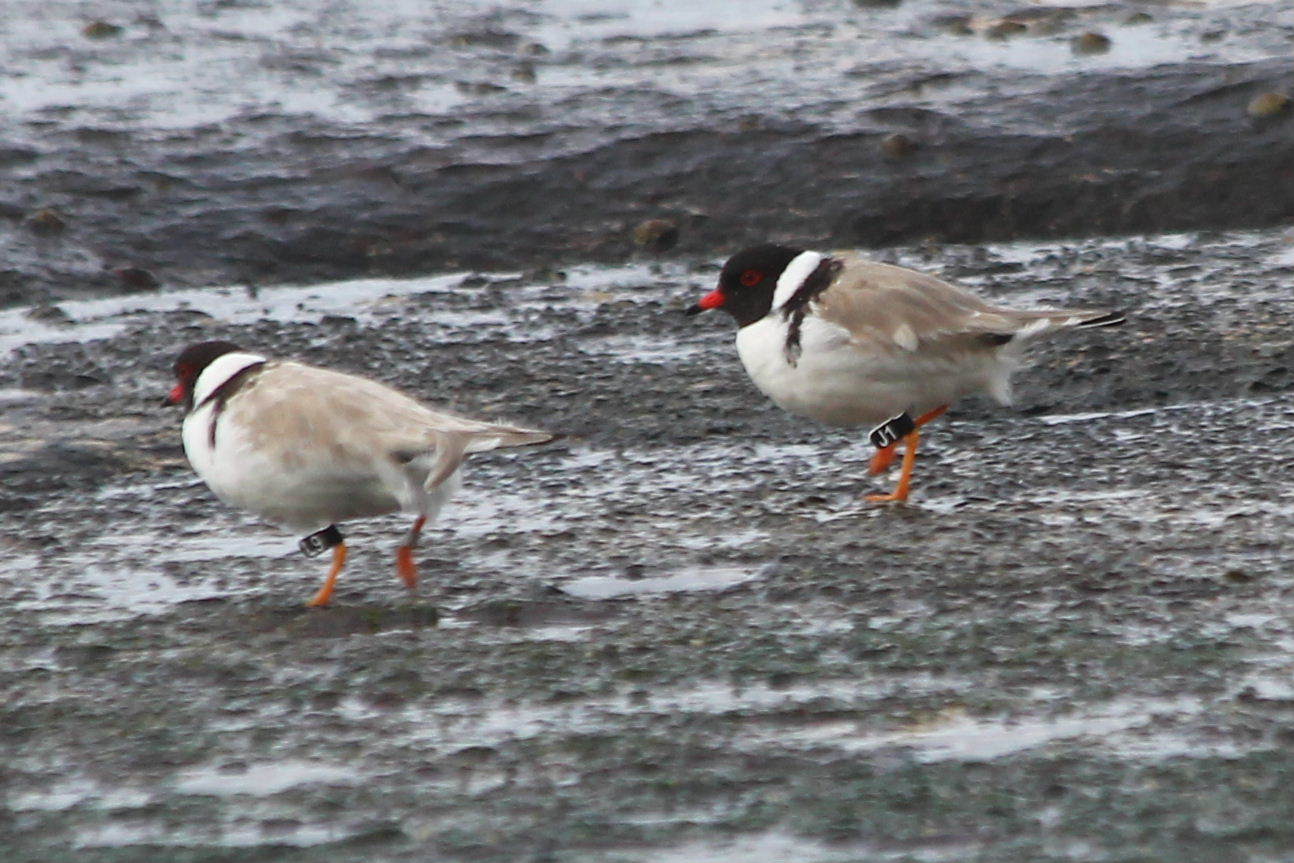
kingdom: Animalia
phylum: Chordata
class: Aves
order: Charadriiformes
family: Charadriidae
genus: Thinornis
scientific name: Thinornis cucullatus
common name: Hooded dotterel
